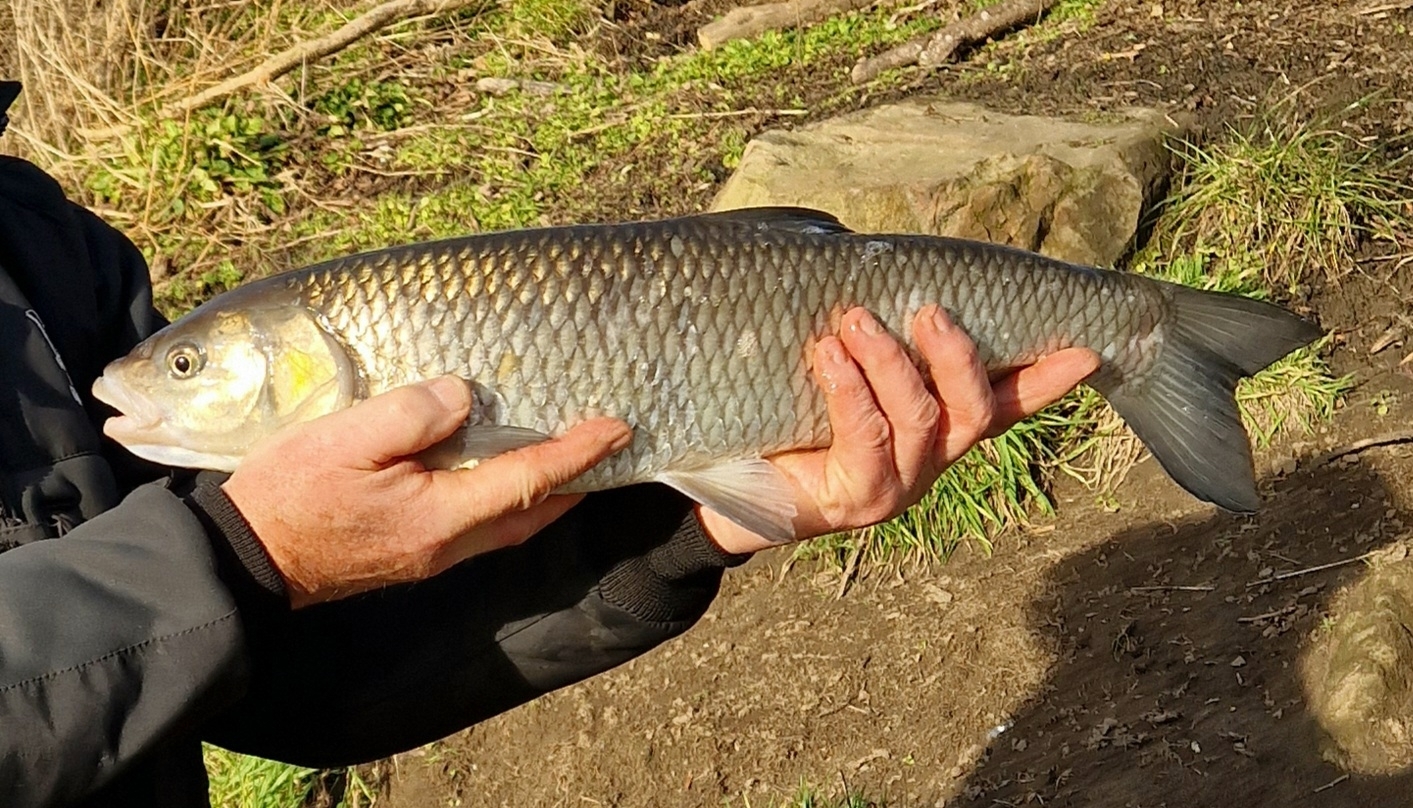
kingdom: Animalia
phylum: Chordata
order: Cypriniformes
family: Cyprinidae
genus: Squalius
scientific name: Squalius cephalus
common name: Chub
